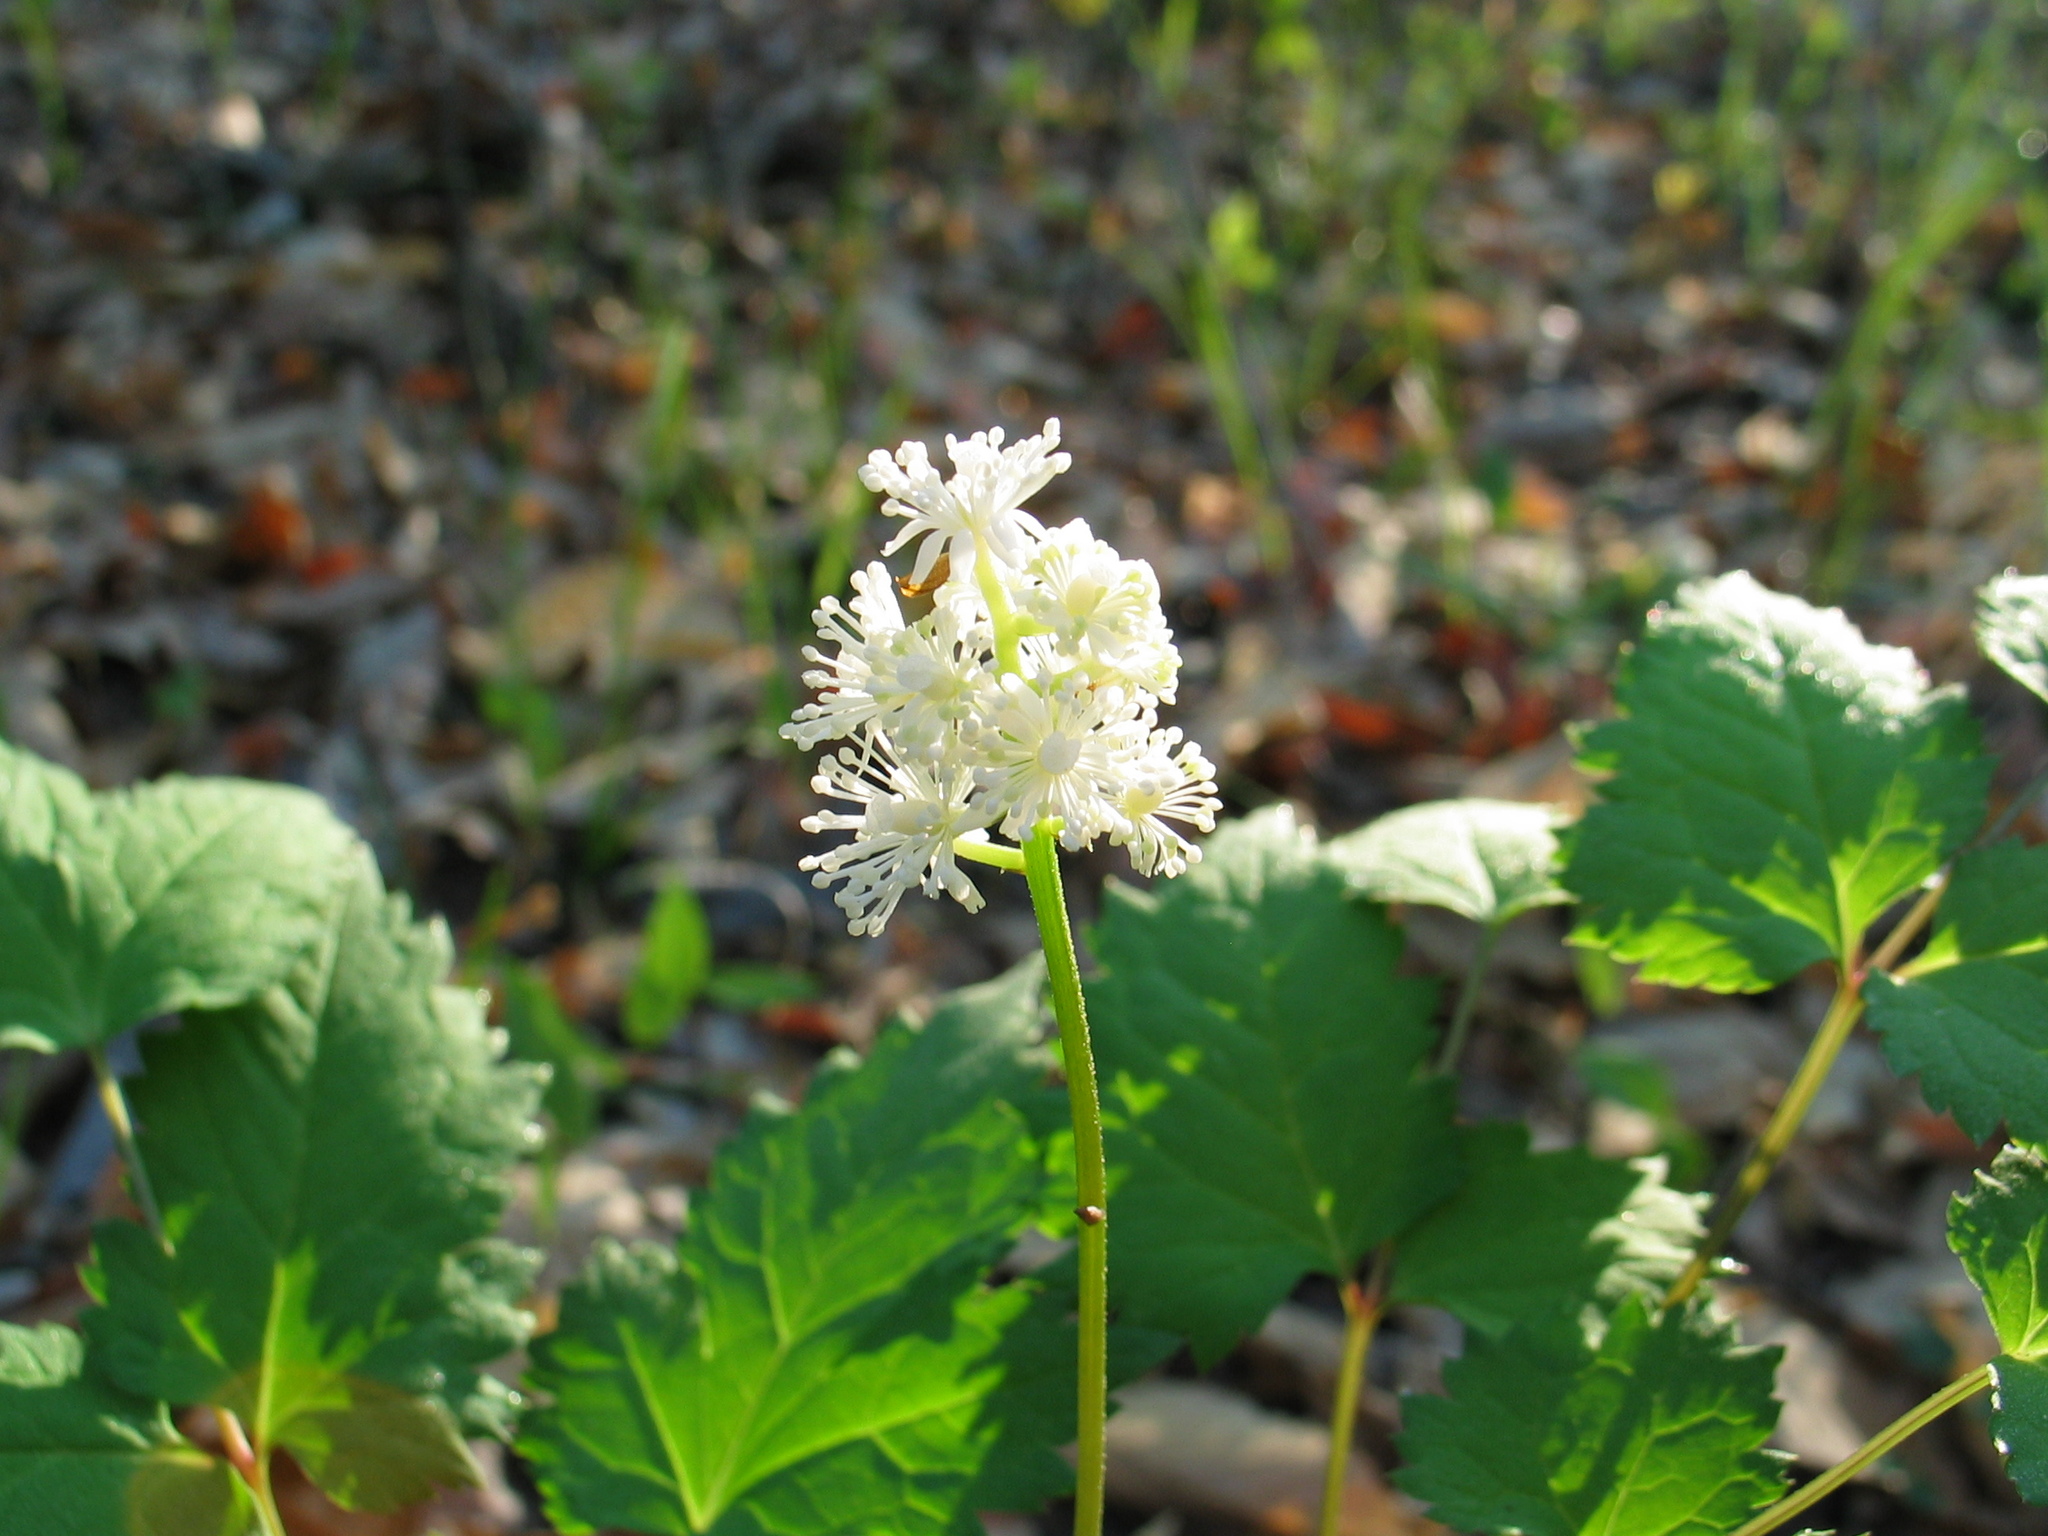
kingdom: Plantae
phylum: Tracheophyta
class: Magnoliopsida
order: Ranunculales
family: Ranunculaceae
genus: Actaea
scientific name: Actaea pachypoda
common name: Doll's-eyes
